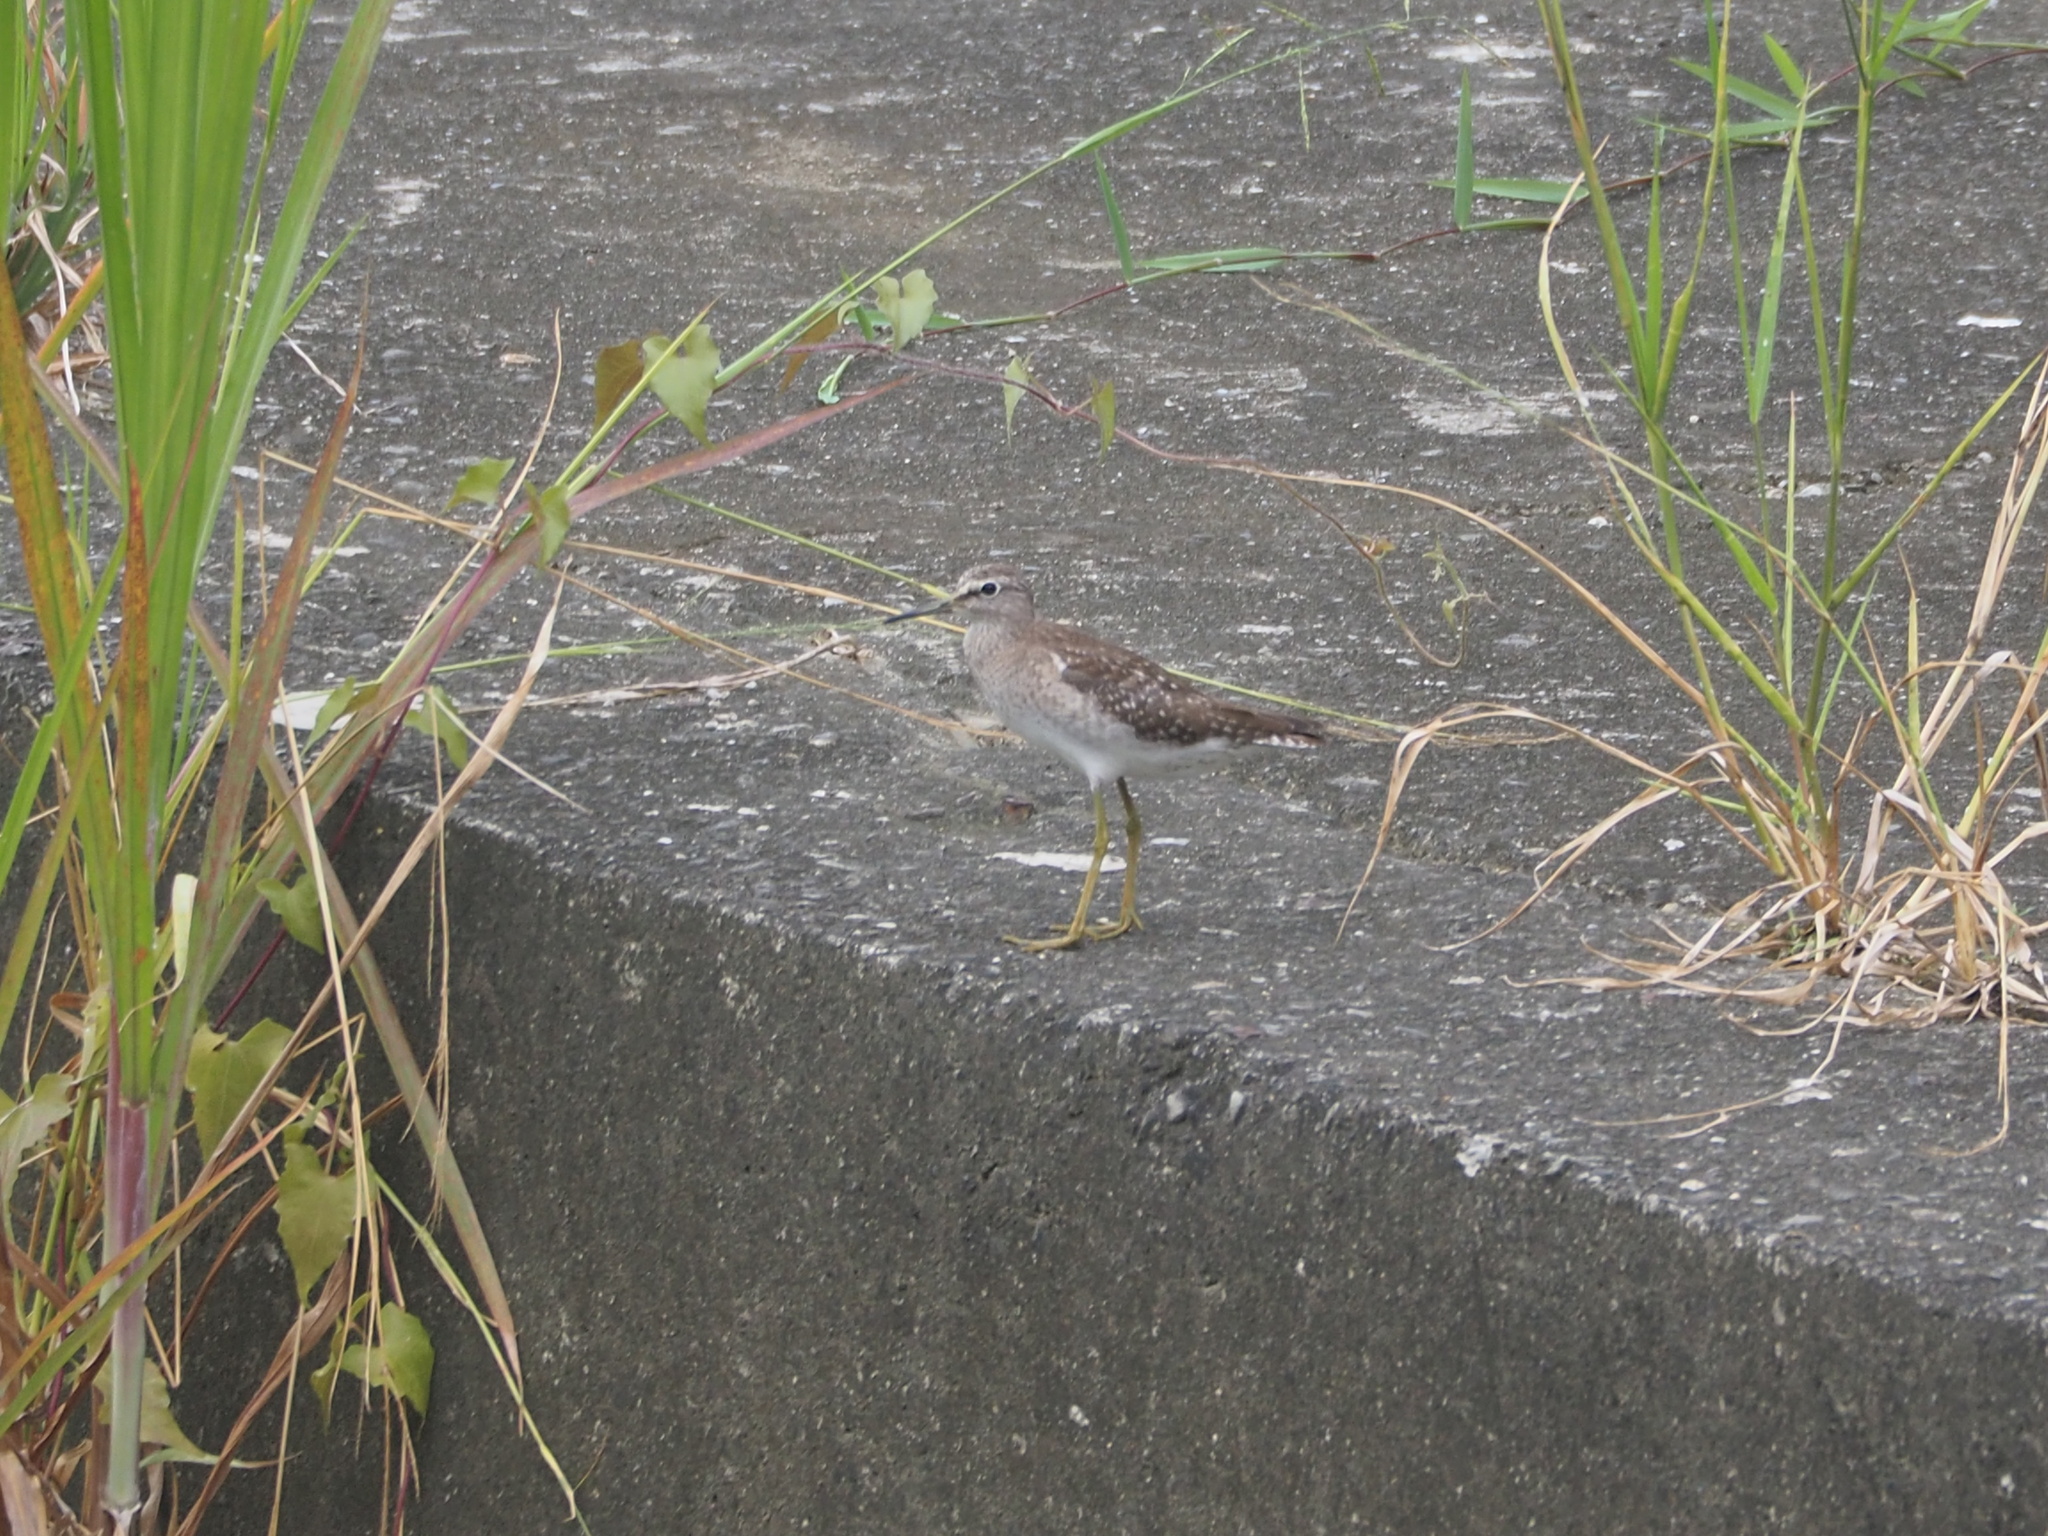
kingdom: Animalia
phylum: Chordata
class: Aves
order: Charadriiformes
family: Scolopacidae
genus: Actitis
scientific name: Actitis hypoleucos
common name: Common sandpiper
